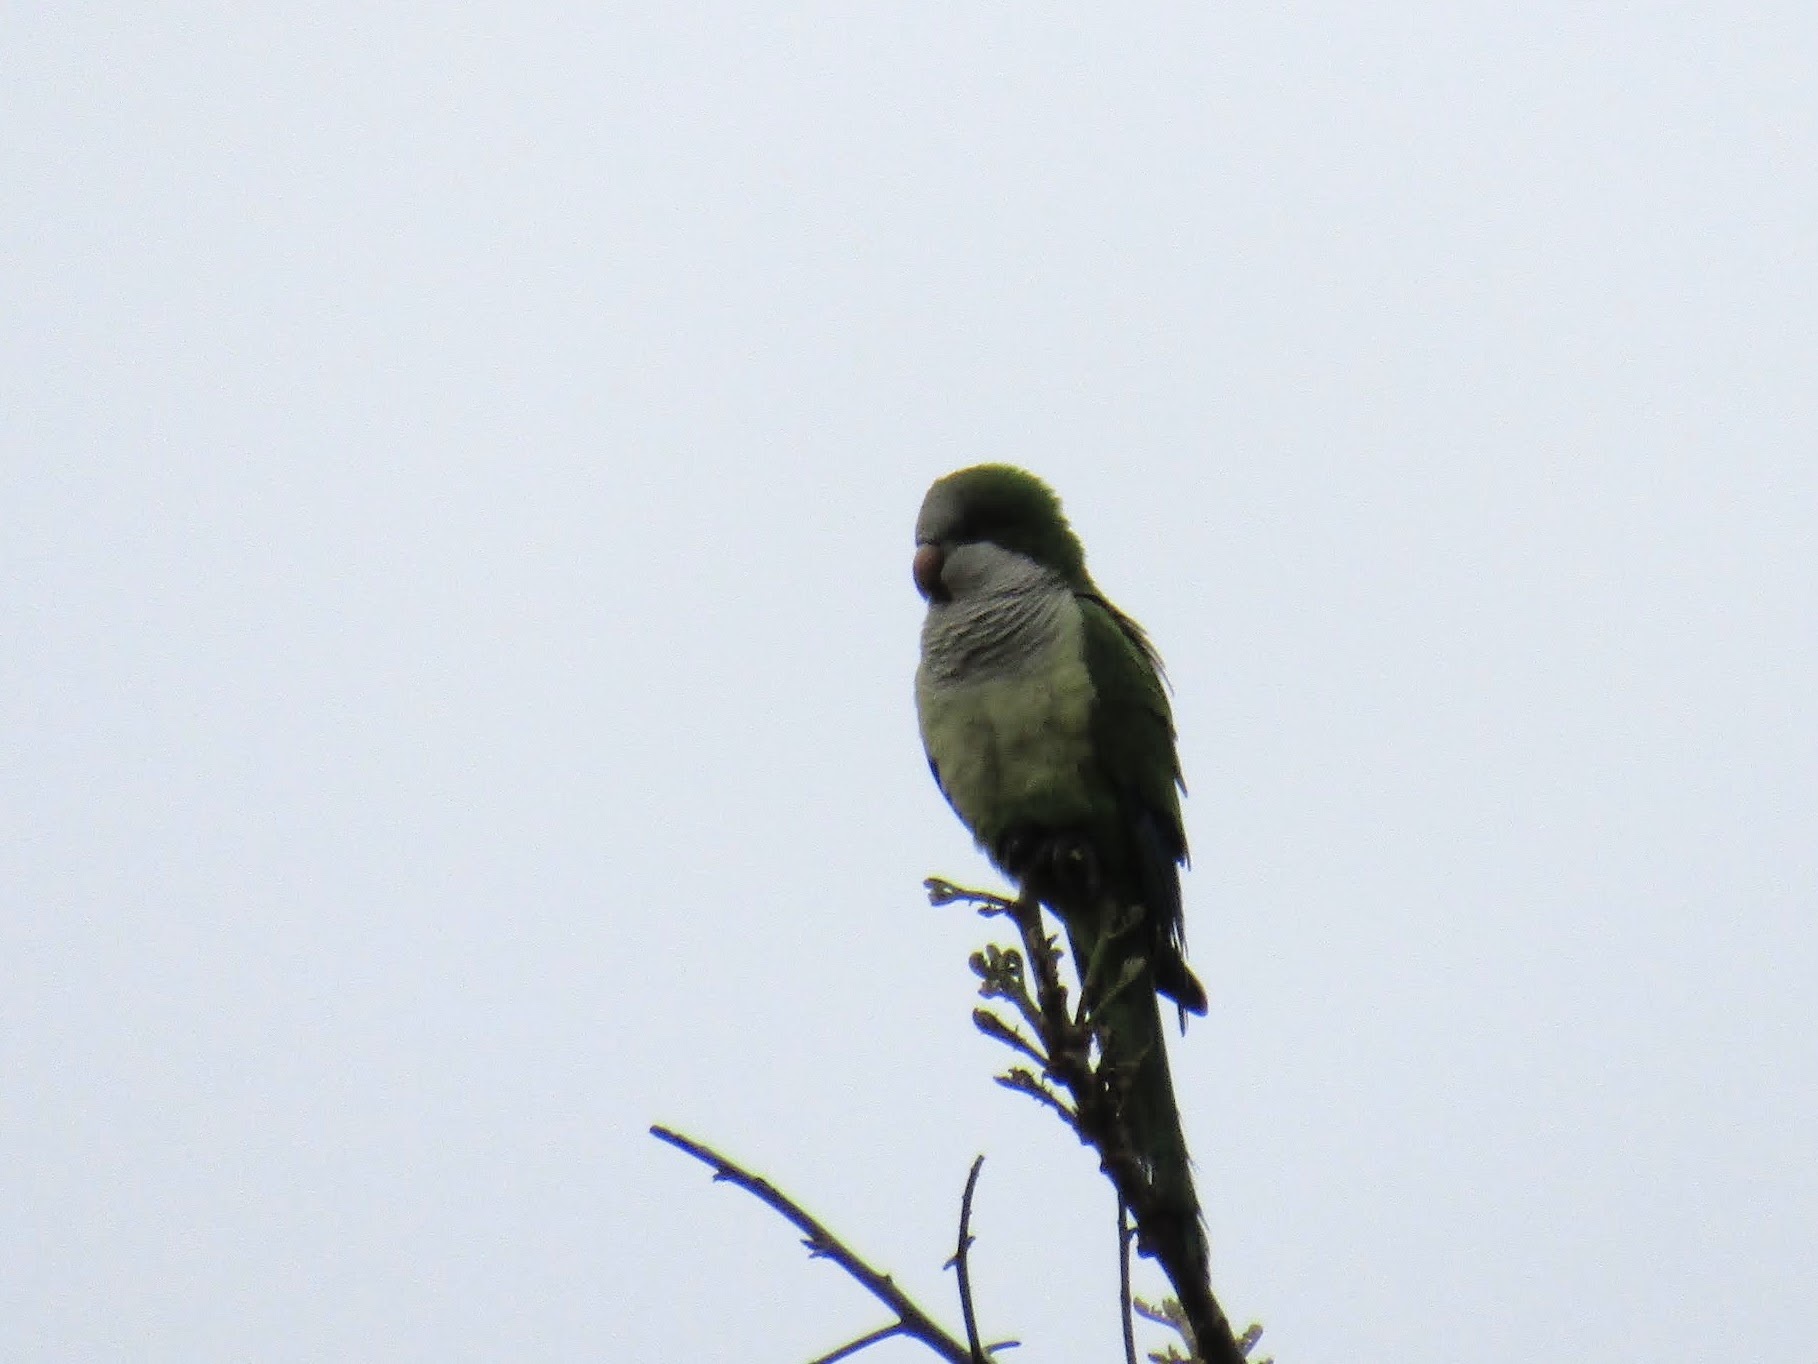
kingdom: Animalia
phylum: Chordata
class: Aves
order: Psittaciformes
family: Psittacidae
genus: Myiopsitta
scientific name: Myiopsitta monachus
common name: Monk parakeet
